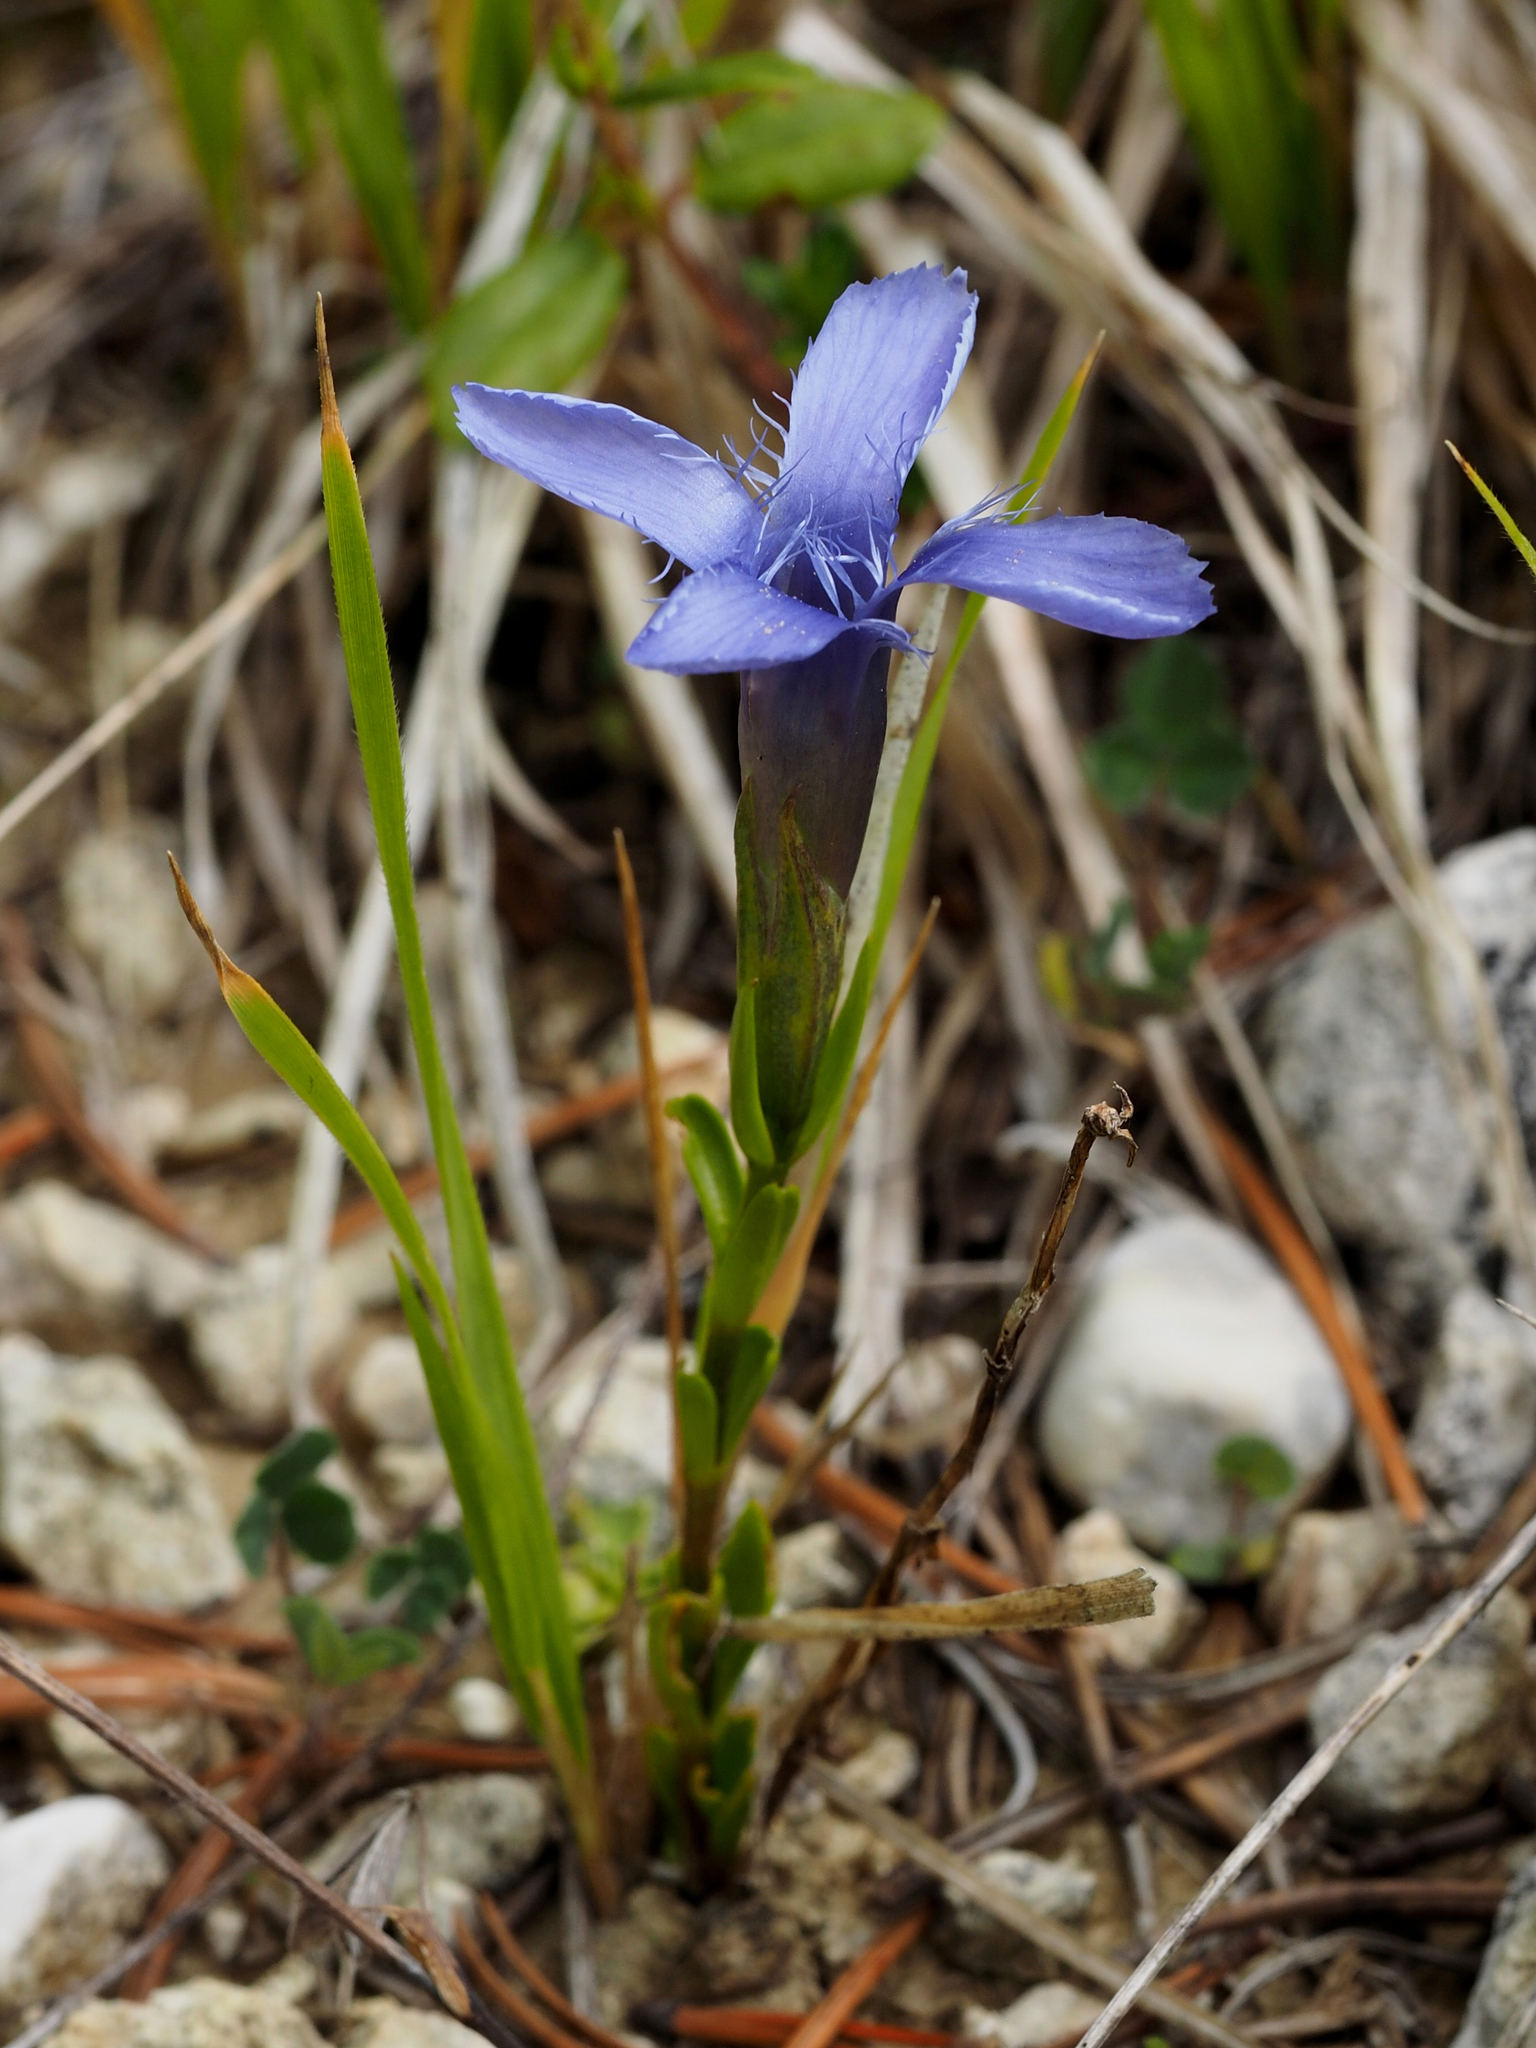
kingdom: Plantae
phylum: Tracheophyta
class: Magnoliopsida
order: Gentianales
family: Gentianaceae
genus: Gentianopsis
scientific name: Gentianopsis ciliata
